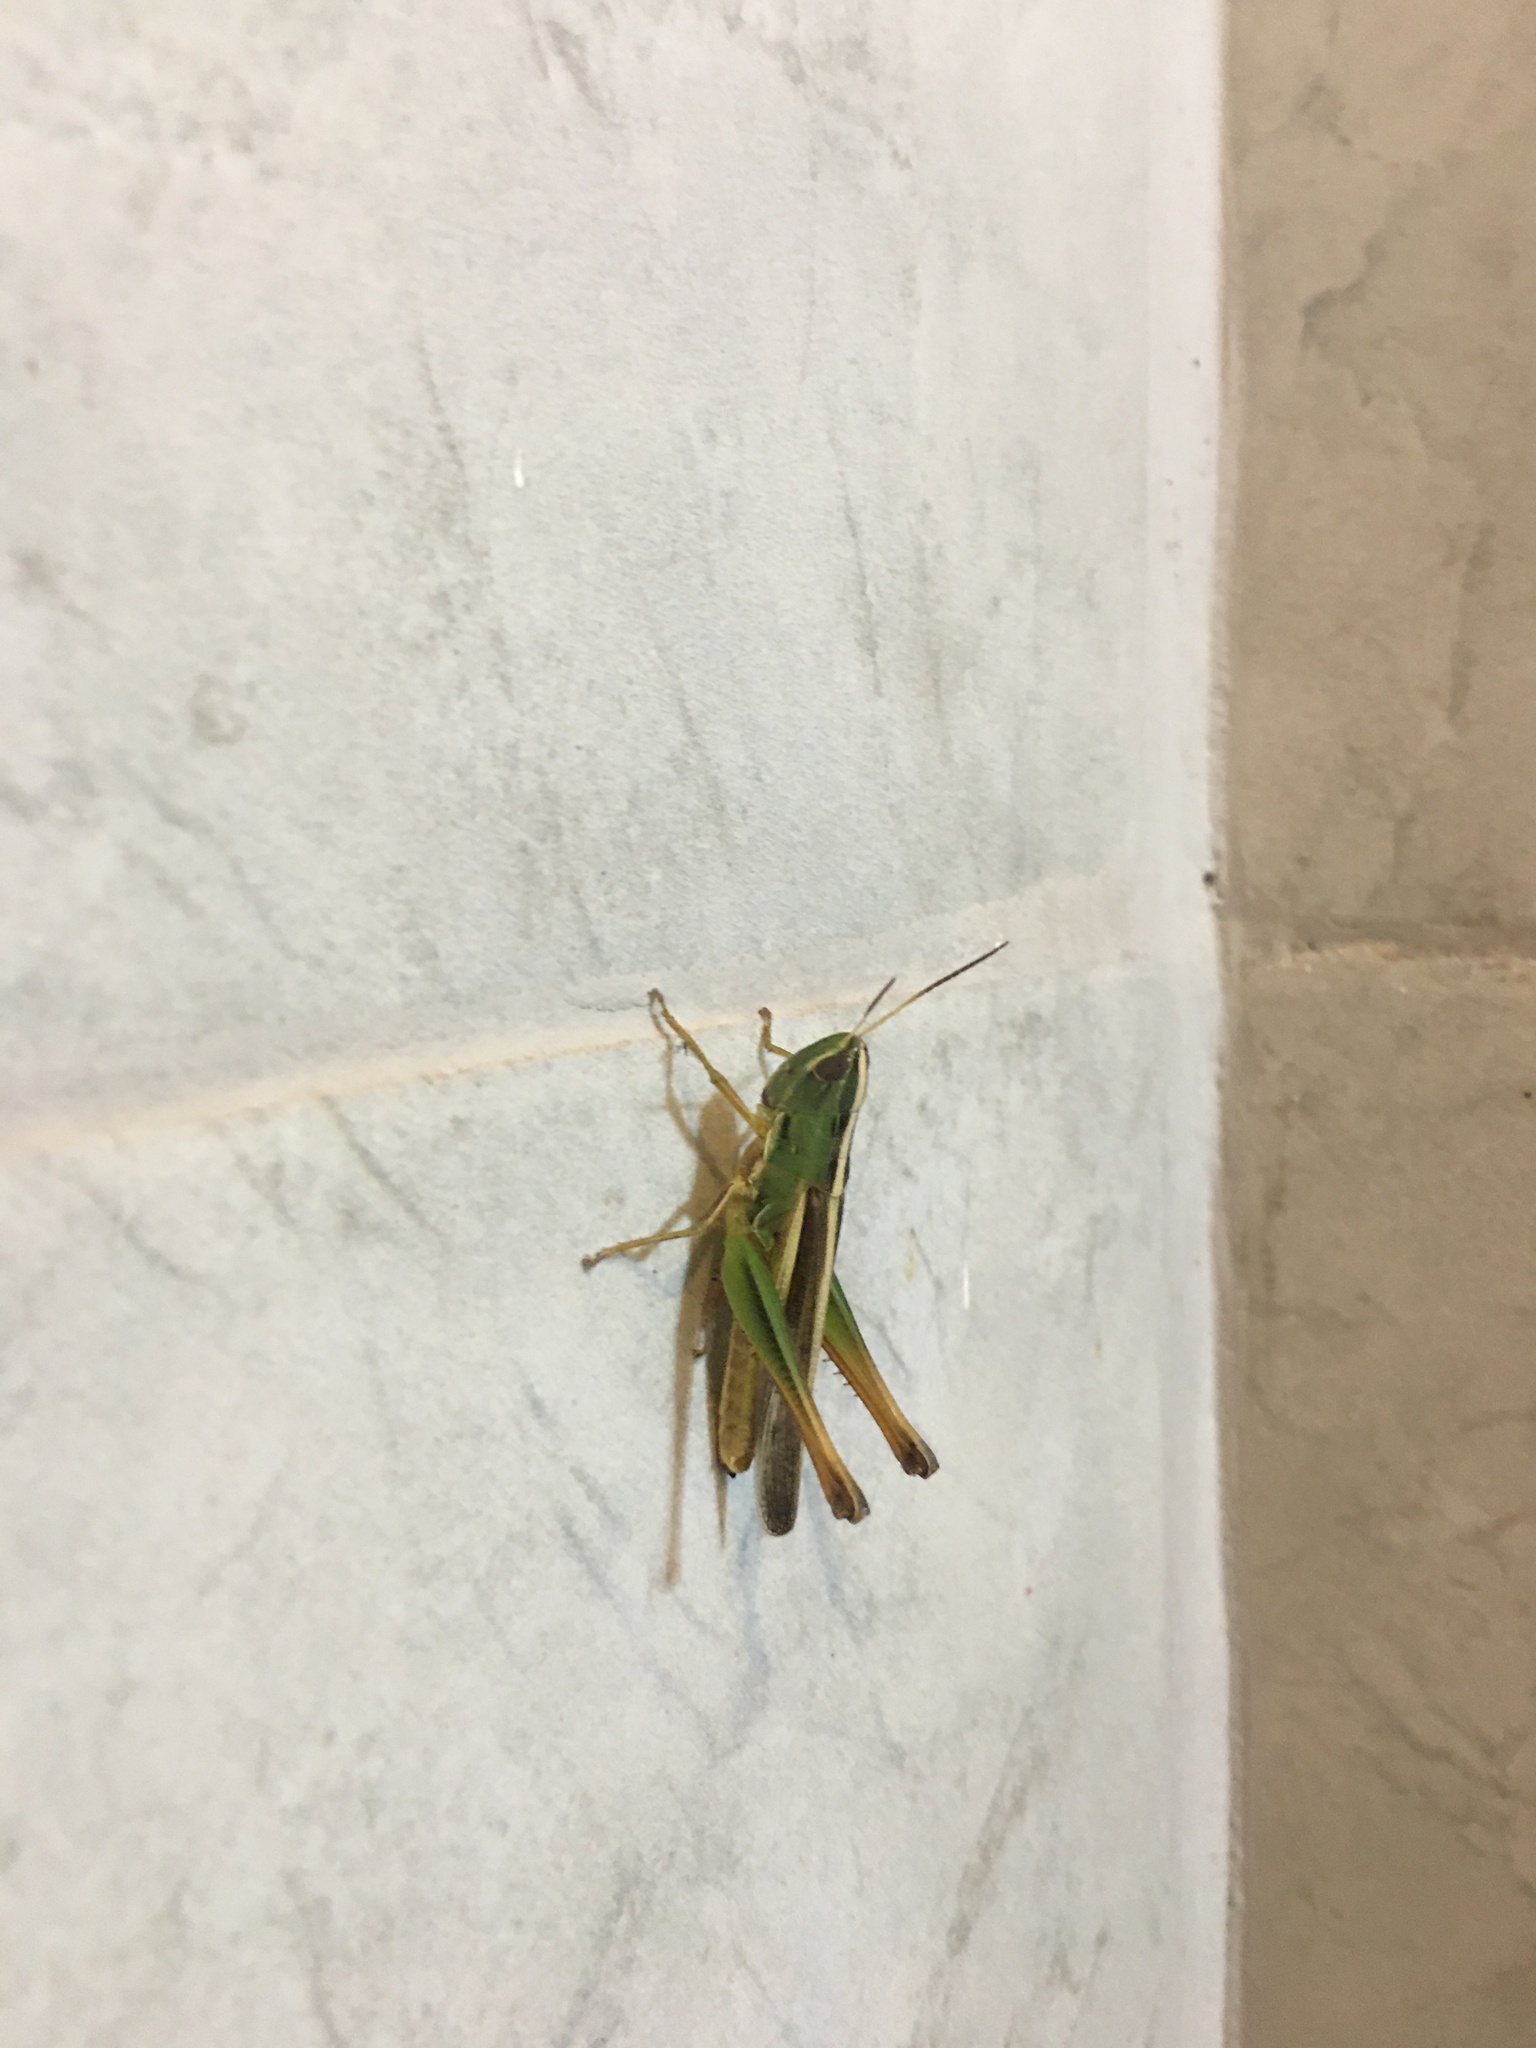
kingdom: Animalia
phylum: Arthropoda
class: Insecta
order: Orthoptera
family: Acrididae
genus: Staurorhectus
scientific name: Staurorhectus longicornis
